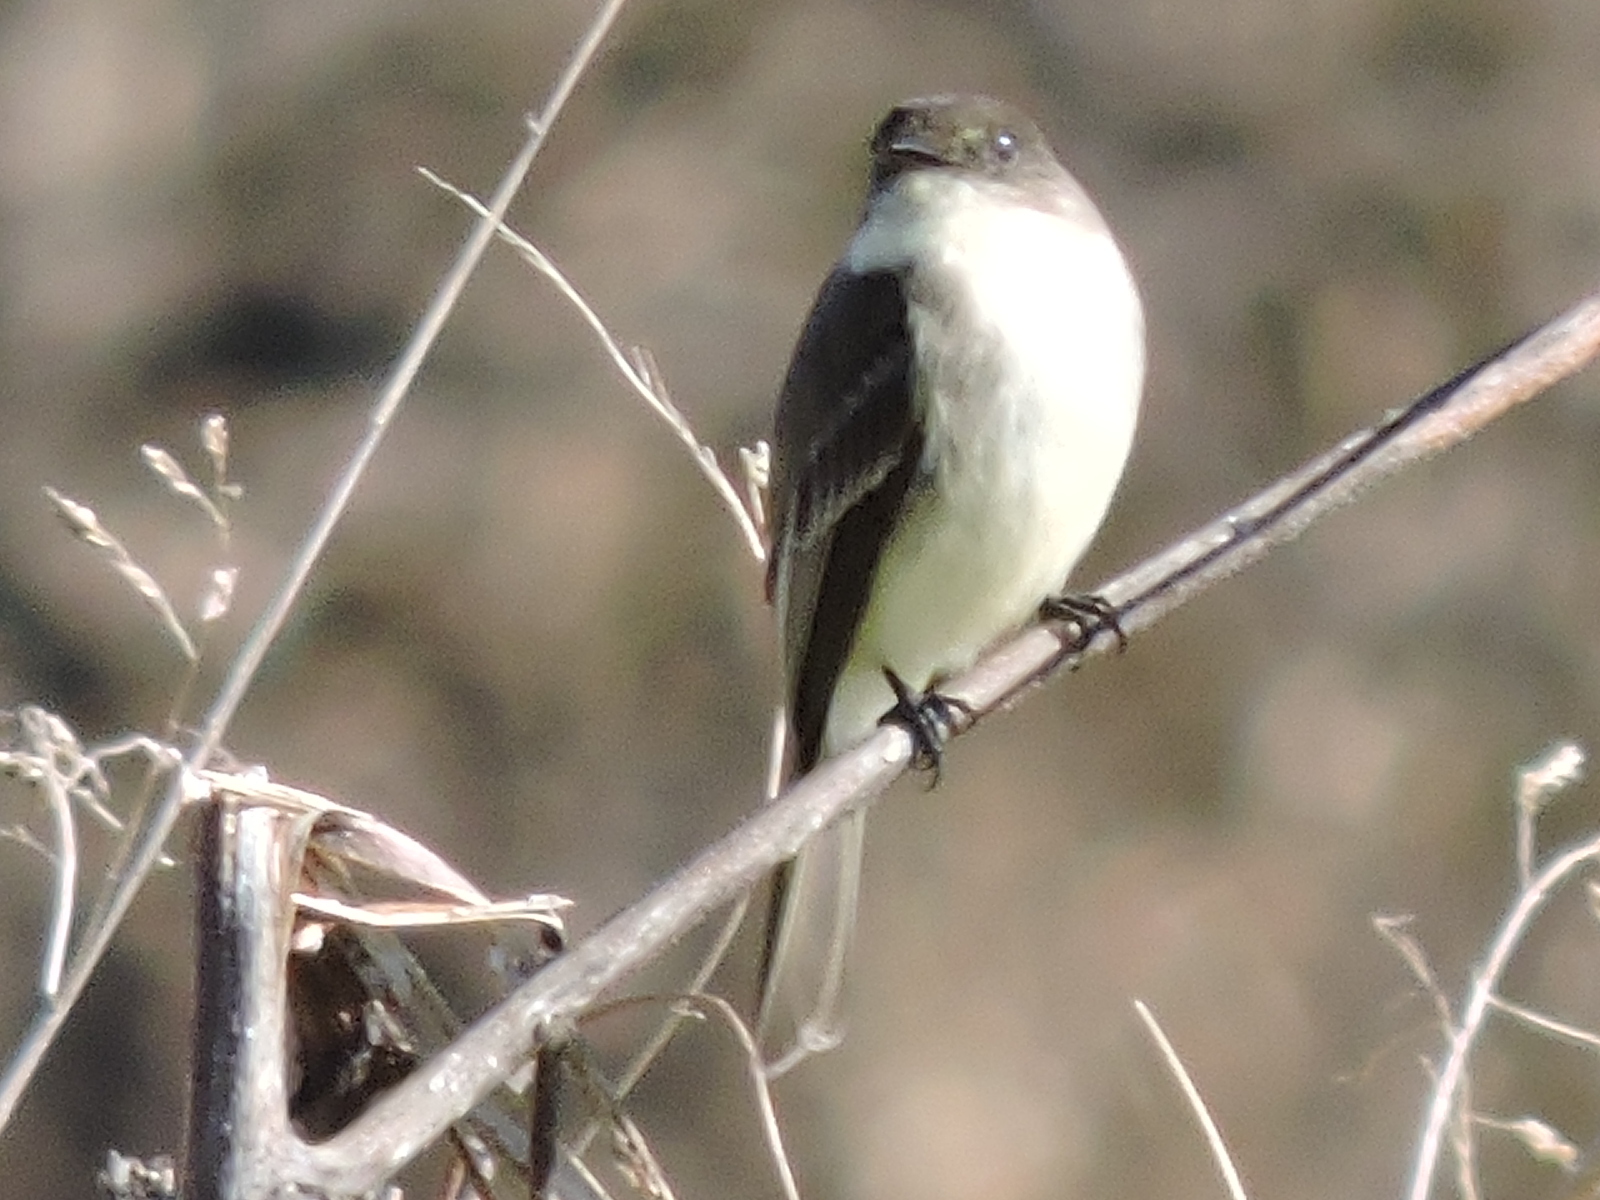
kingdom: Animalia
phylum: Chordata
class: Aves
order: Passeriformes
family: Tyrannidae
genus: Sayornis
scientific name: Sayornis phoebe
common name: Eastern phoebe
